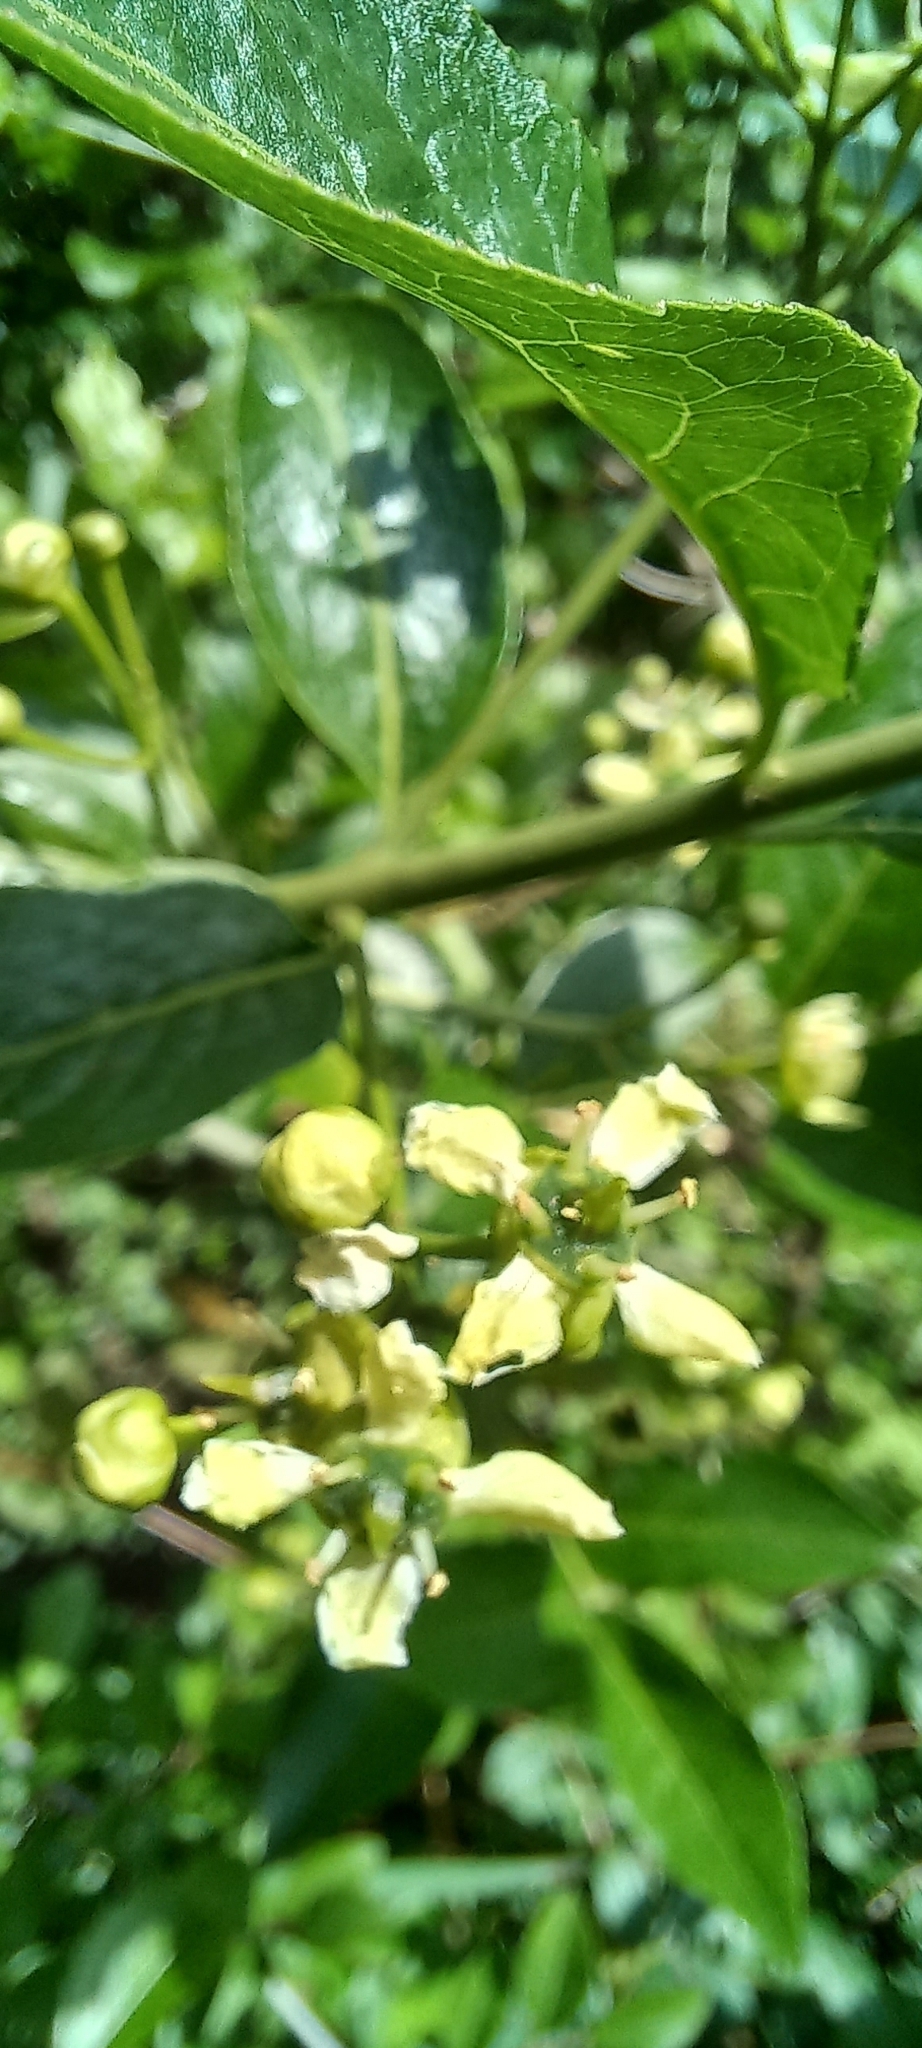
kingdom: Plantae
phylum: Tracheophyta
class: Magnoliopsida
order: Celastrales
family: Celastraceae
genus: Euonymus
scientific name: Euonymus europaeus
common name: Spindle
